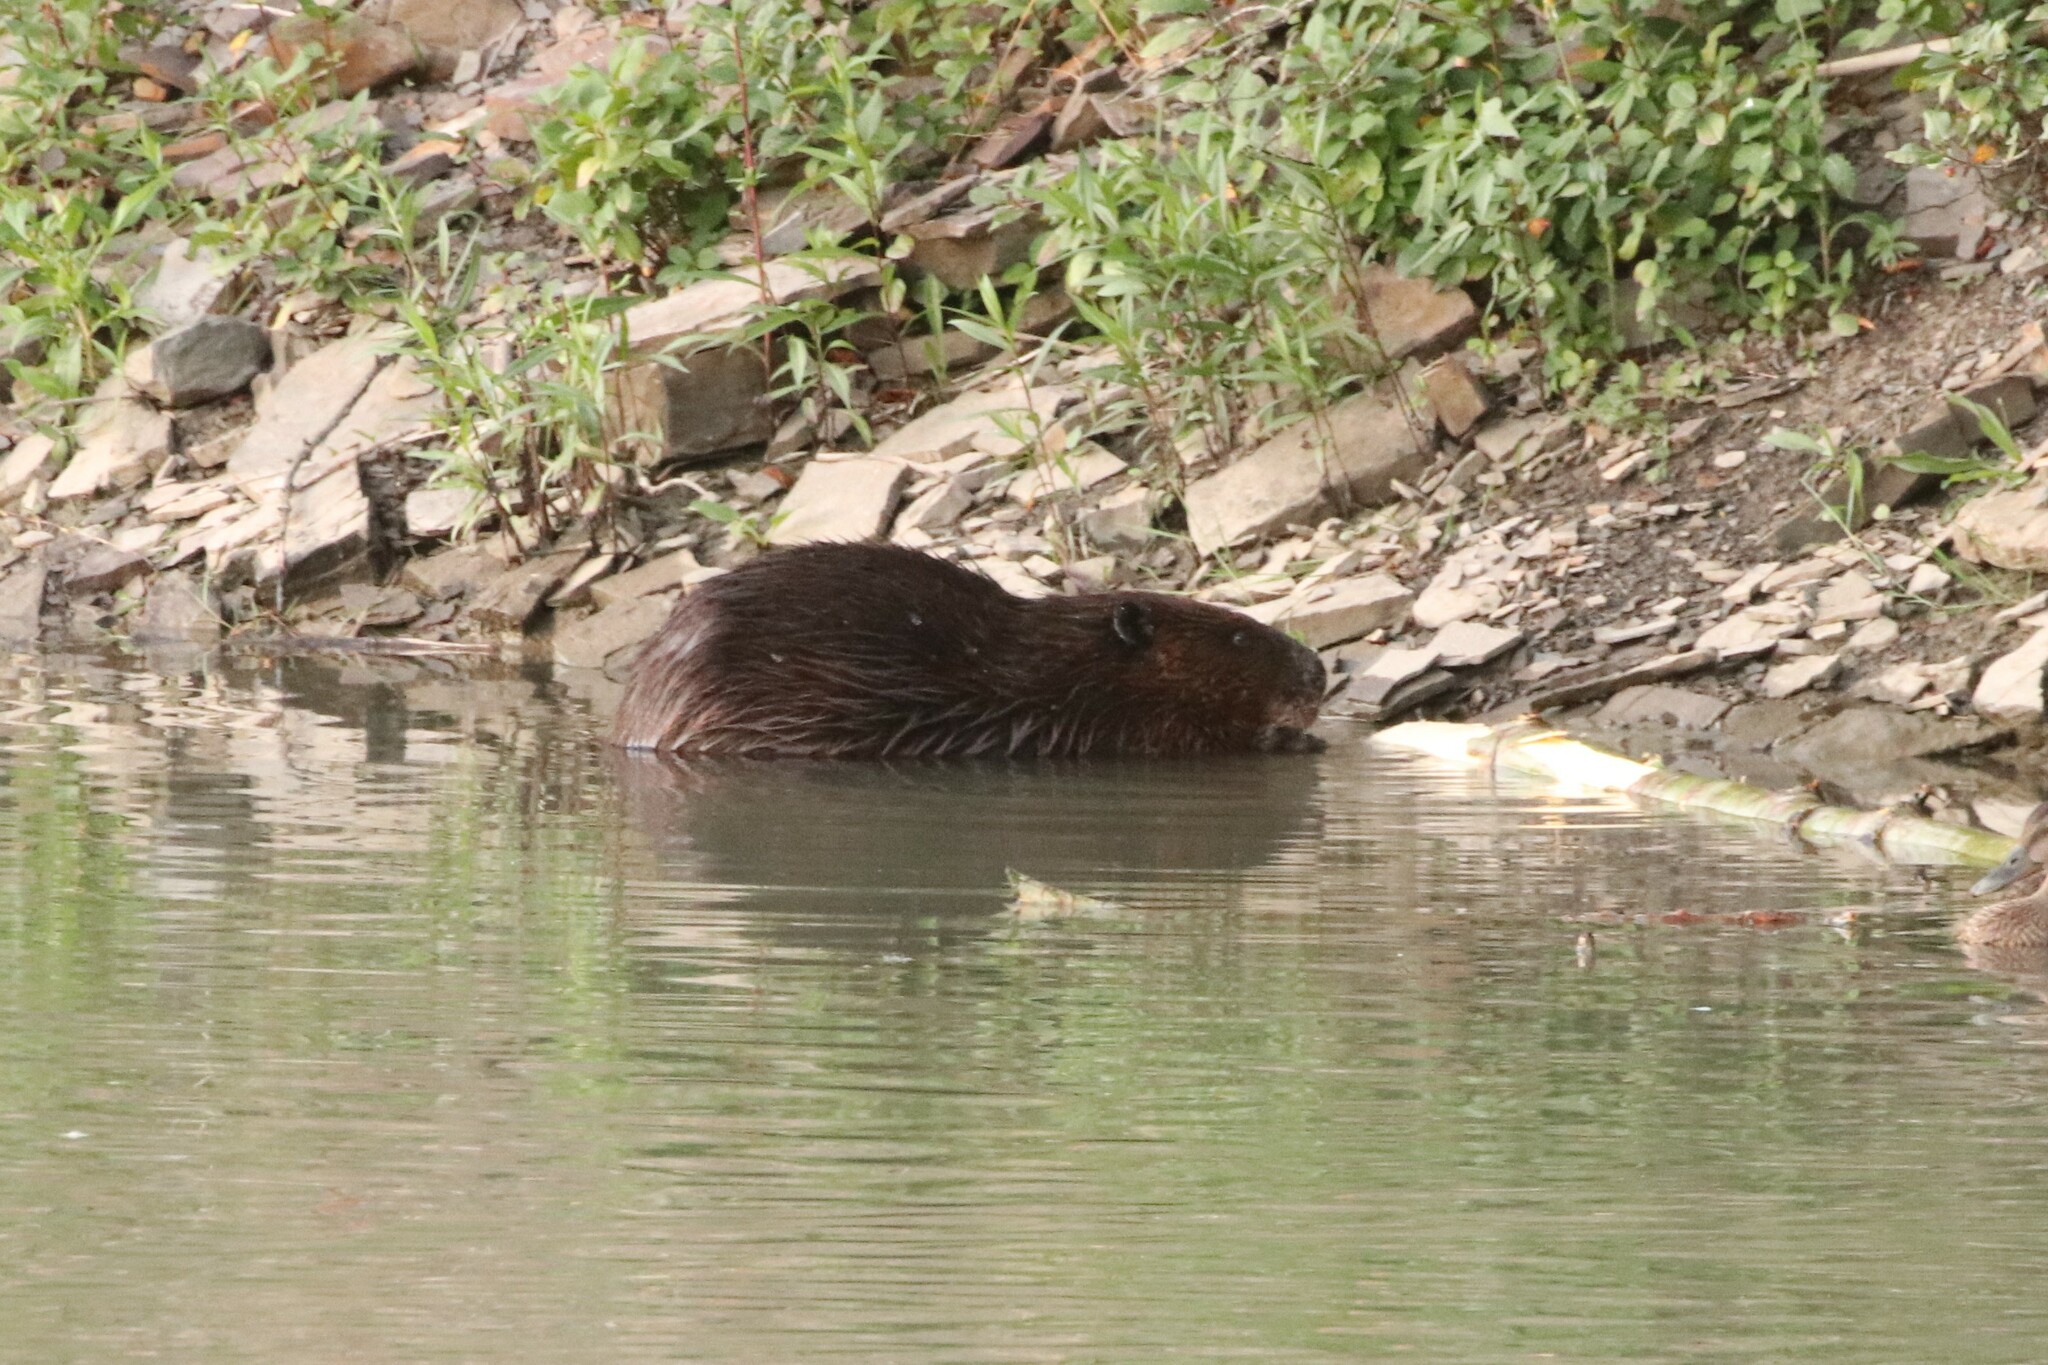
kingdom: Animalia
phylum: Chordata
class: Mammalia
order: Rodentia
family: Castoridae
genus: Castor
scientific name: Castor canadensis
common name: American beaver
